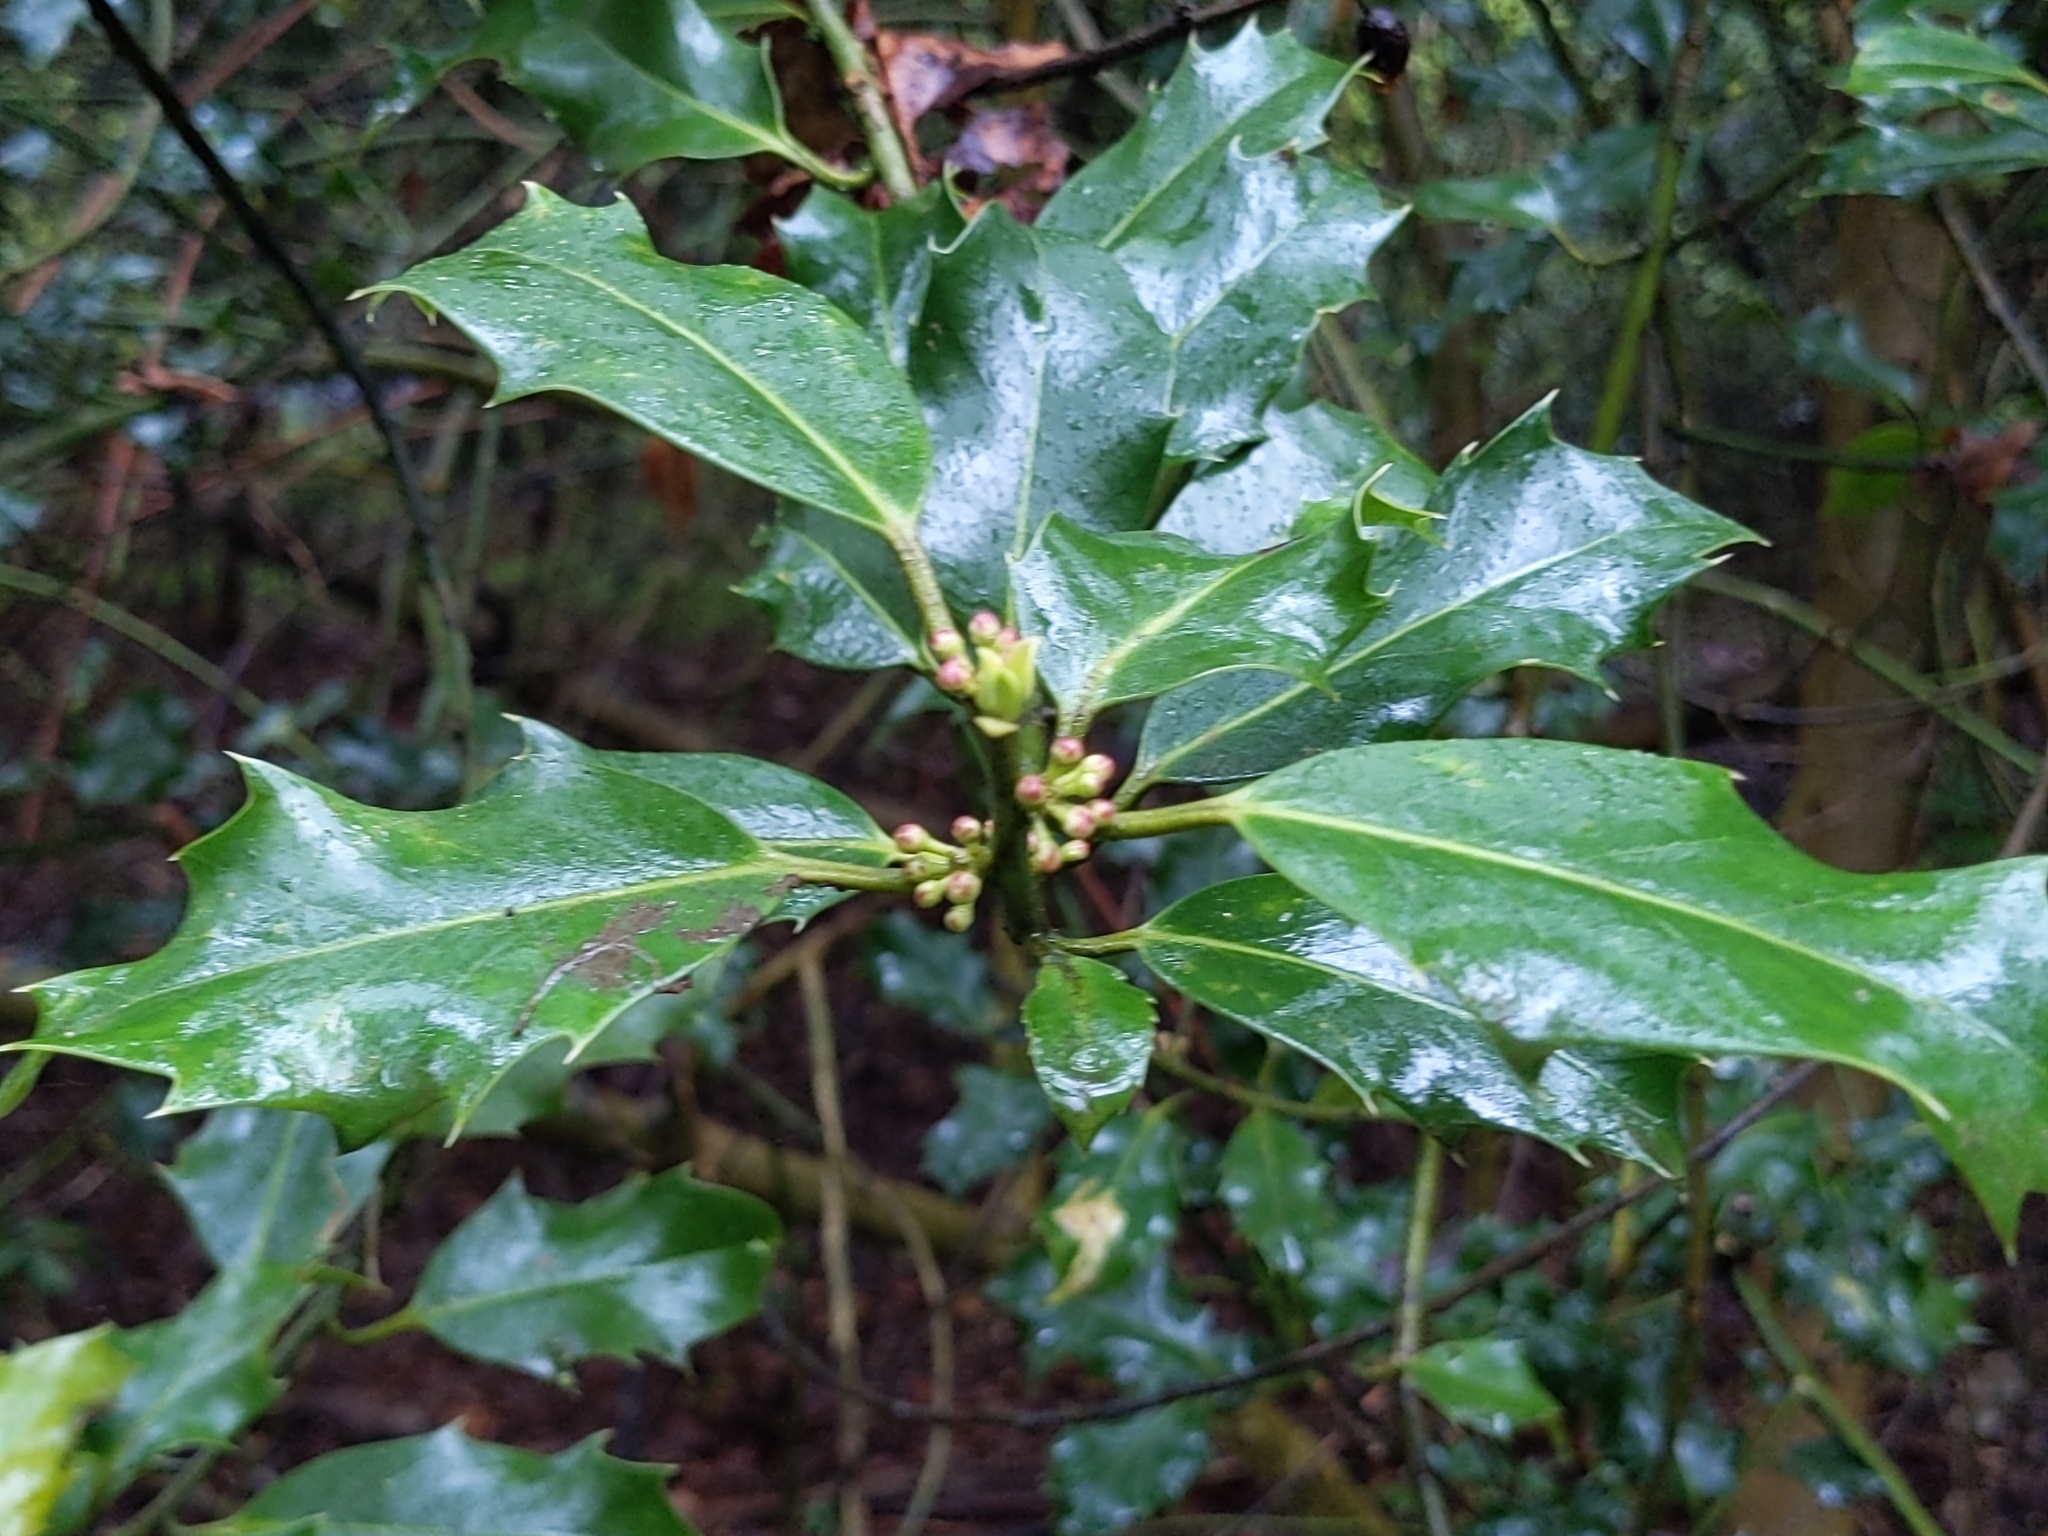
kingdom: Plantae
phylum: Tracheophyta
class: Magnoliopsida
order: Aquifoliales
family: Aquifoliaceae
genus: Ilex
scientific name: Ilex aquifolium
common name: English holly
